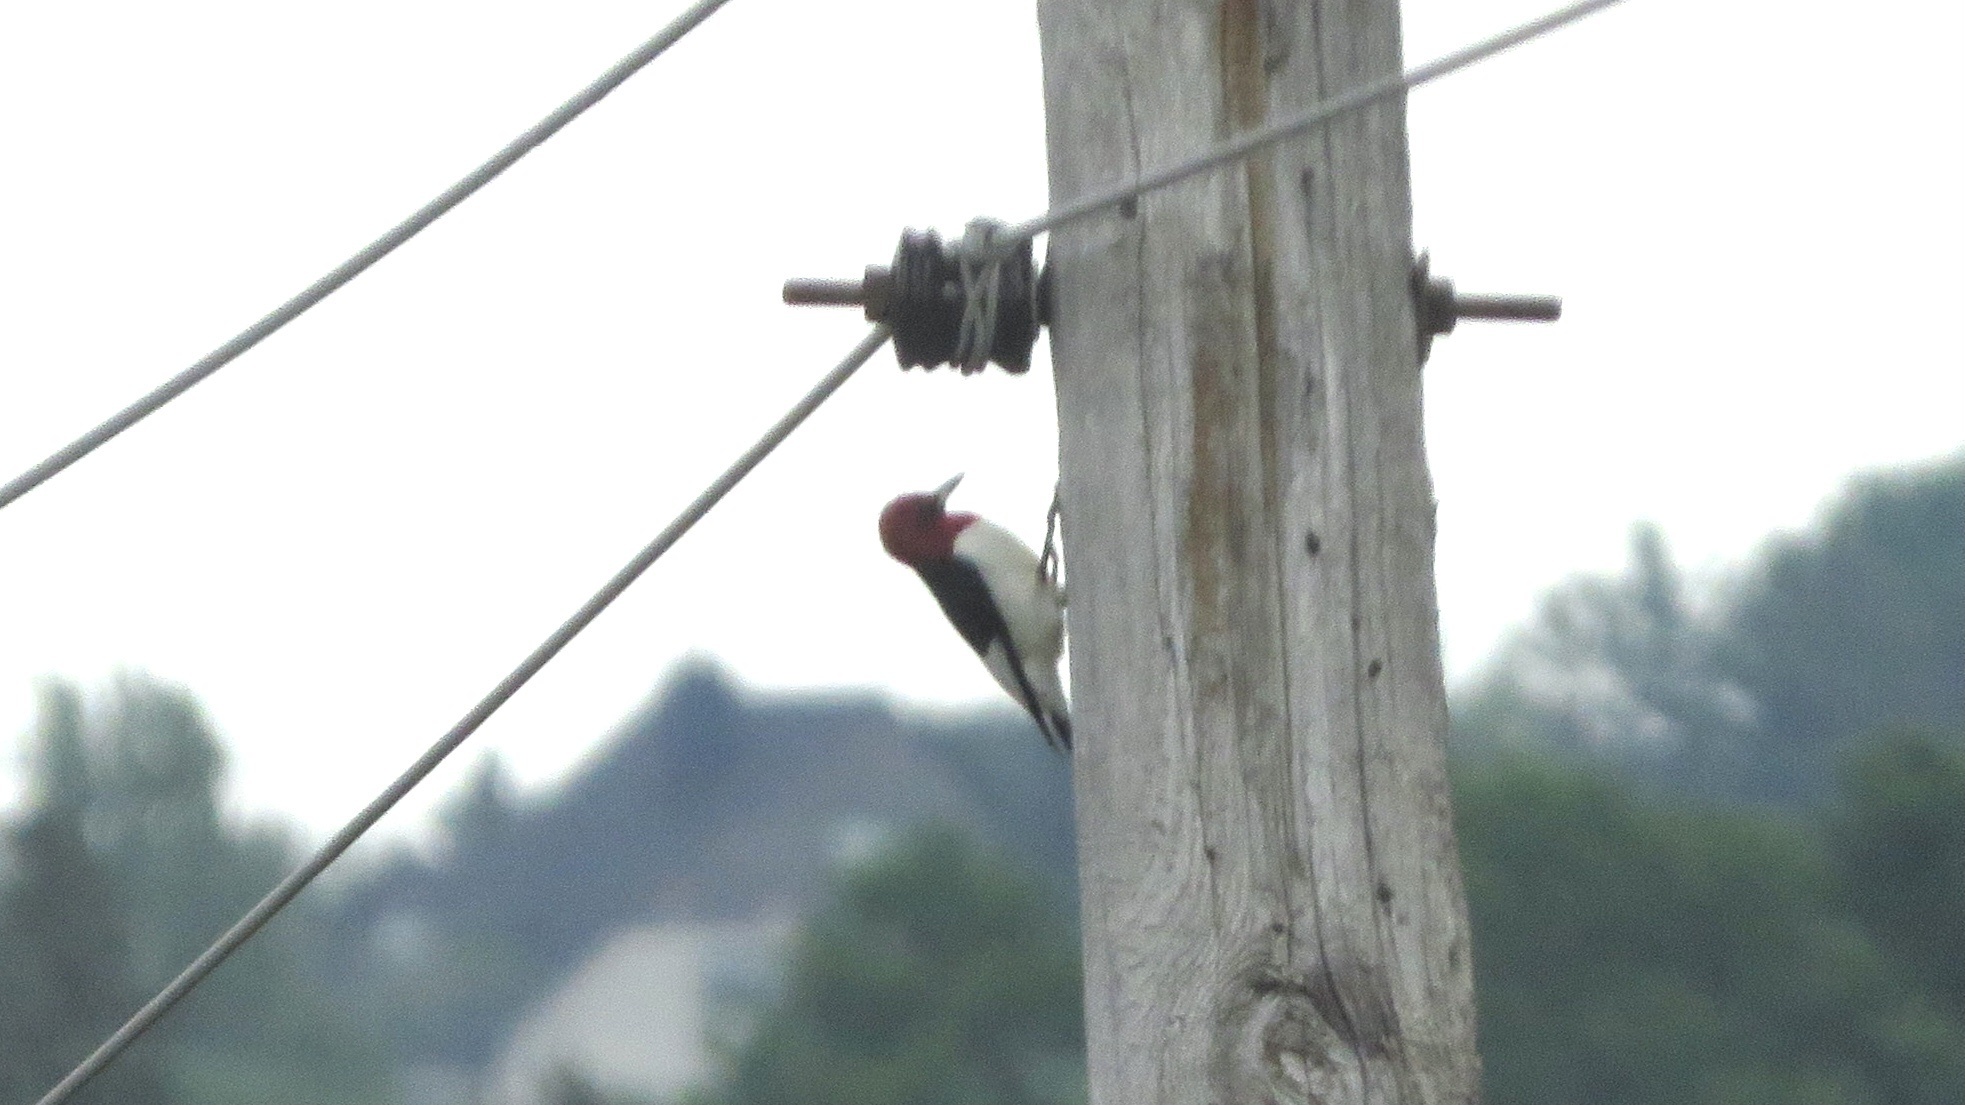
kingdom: Animalia
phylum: Chordata
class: Aves
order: Piciformes
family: Picidae
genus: Melanerpes
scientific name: Melanerpes erythrocephalus
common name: Red-headed woodpecker
